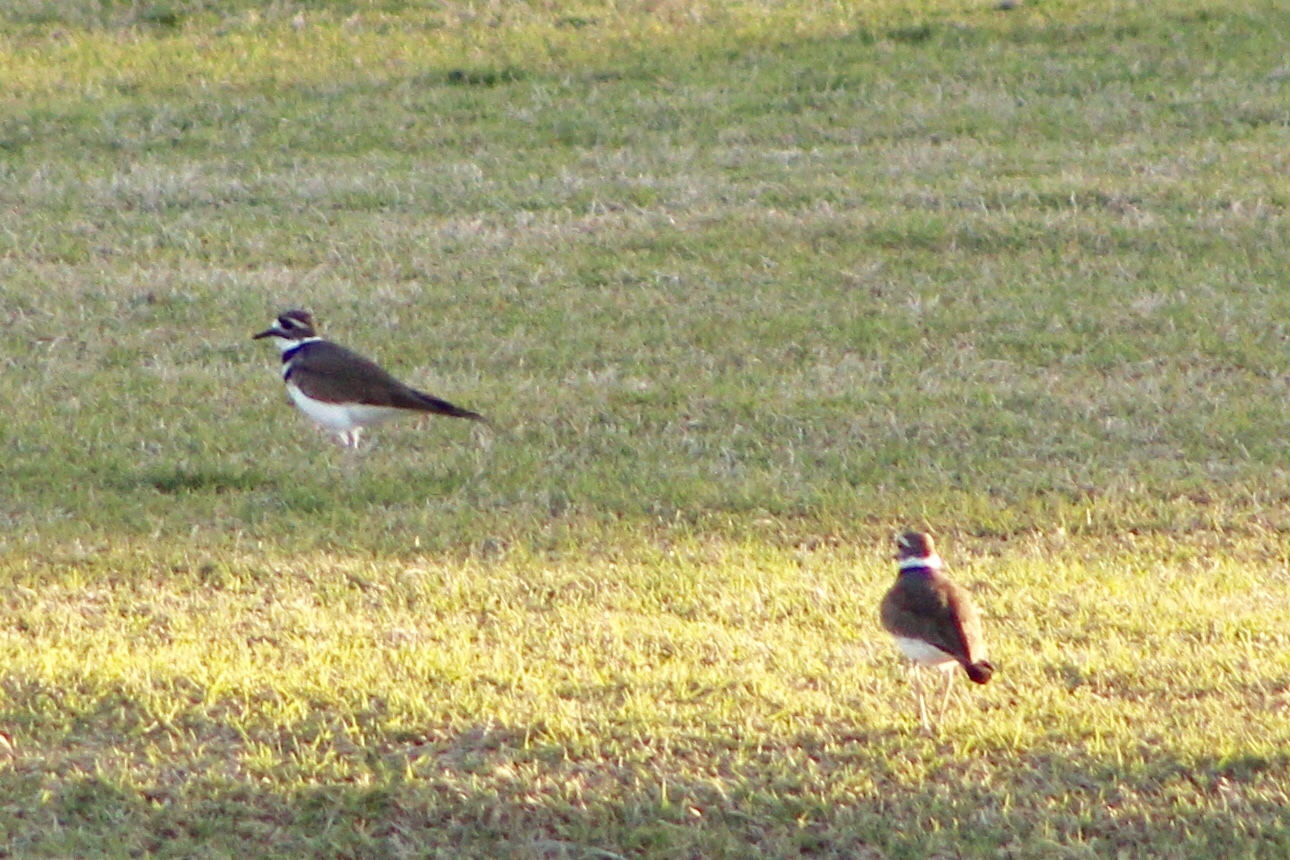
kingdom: Animalia
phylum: Chordata
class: Aves
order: Charadriiformes
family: Charadriidae
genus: Charadrius
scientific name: Charadrius vociferus
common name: Killdeer
